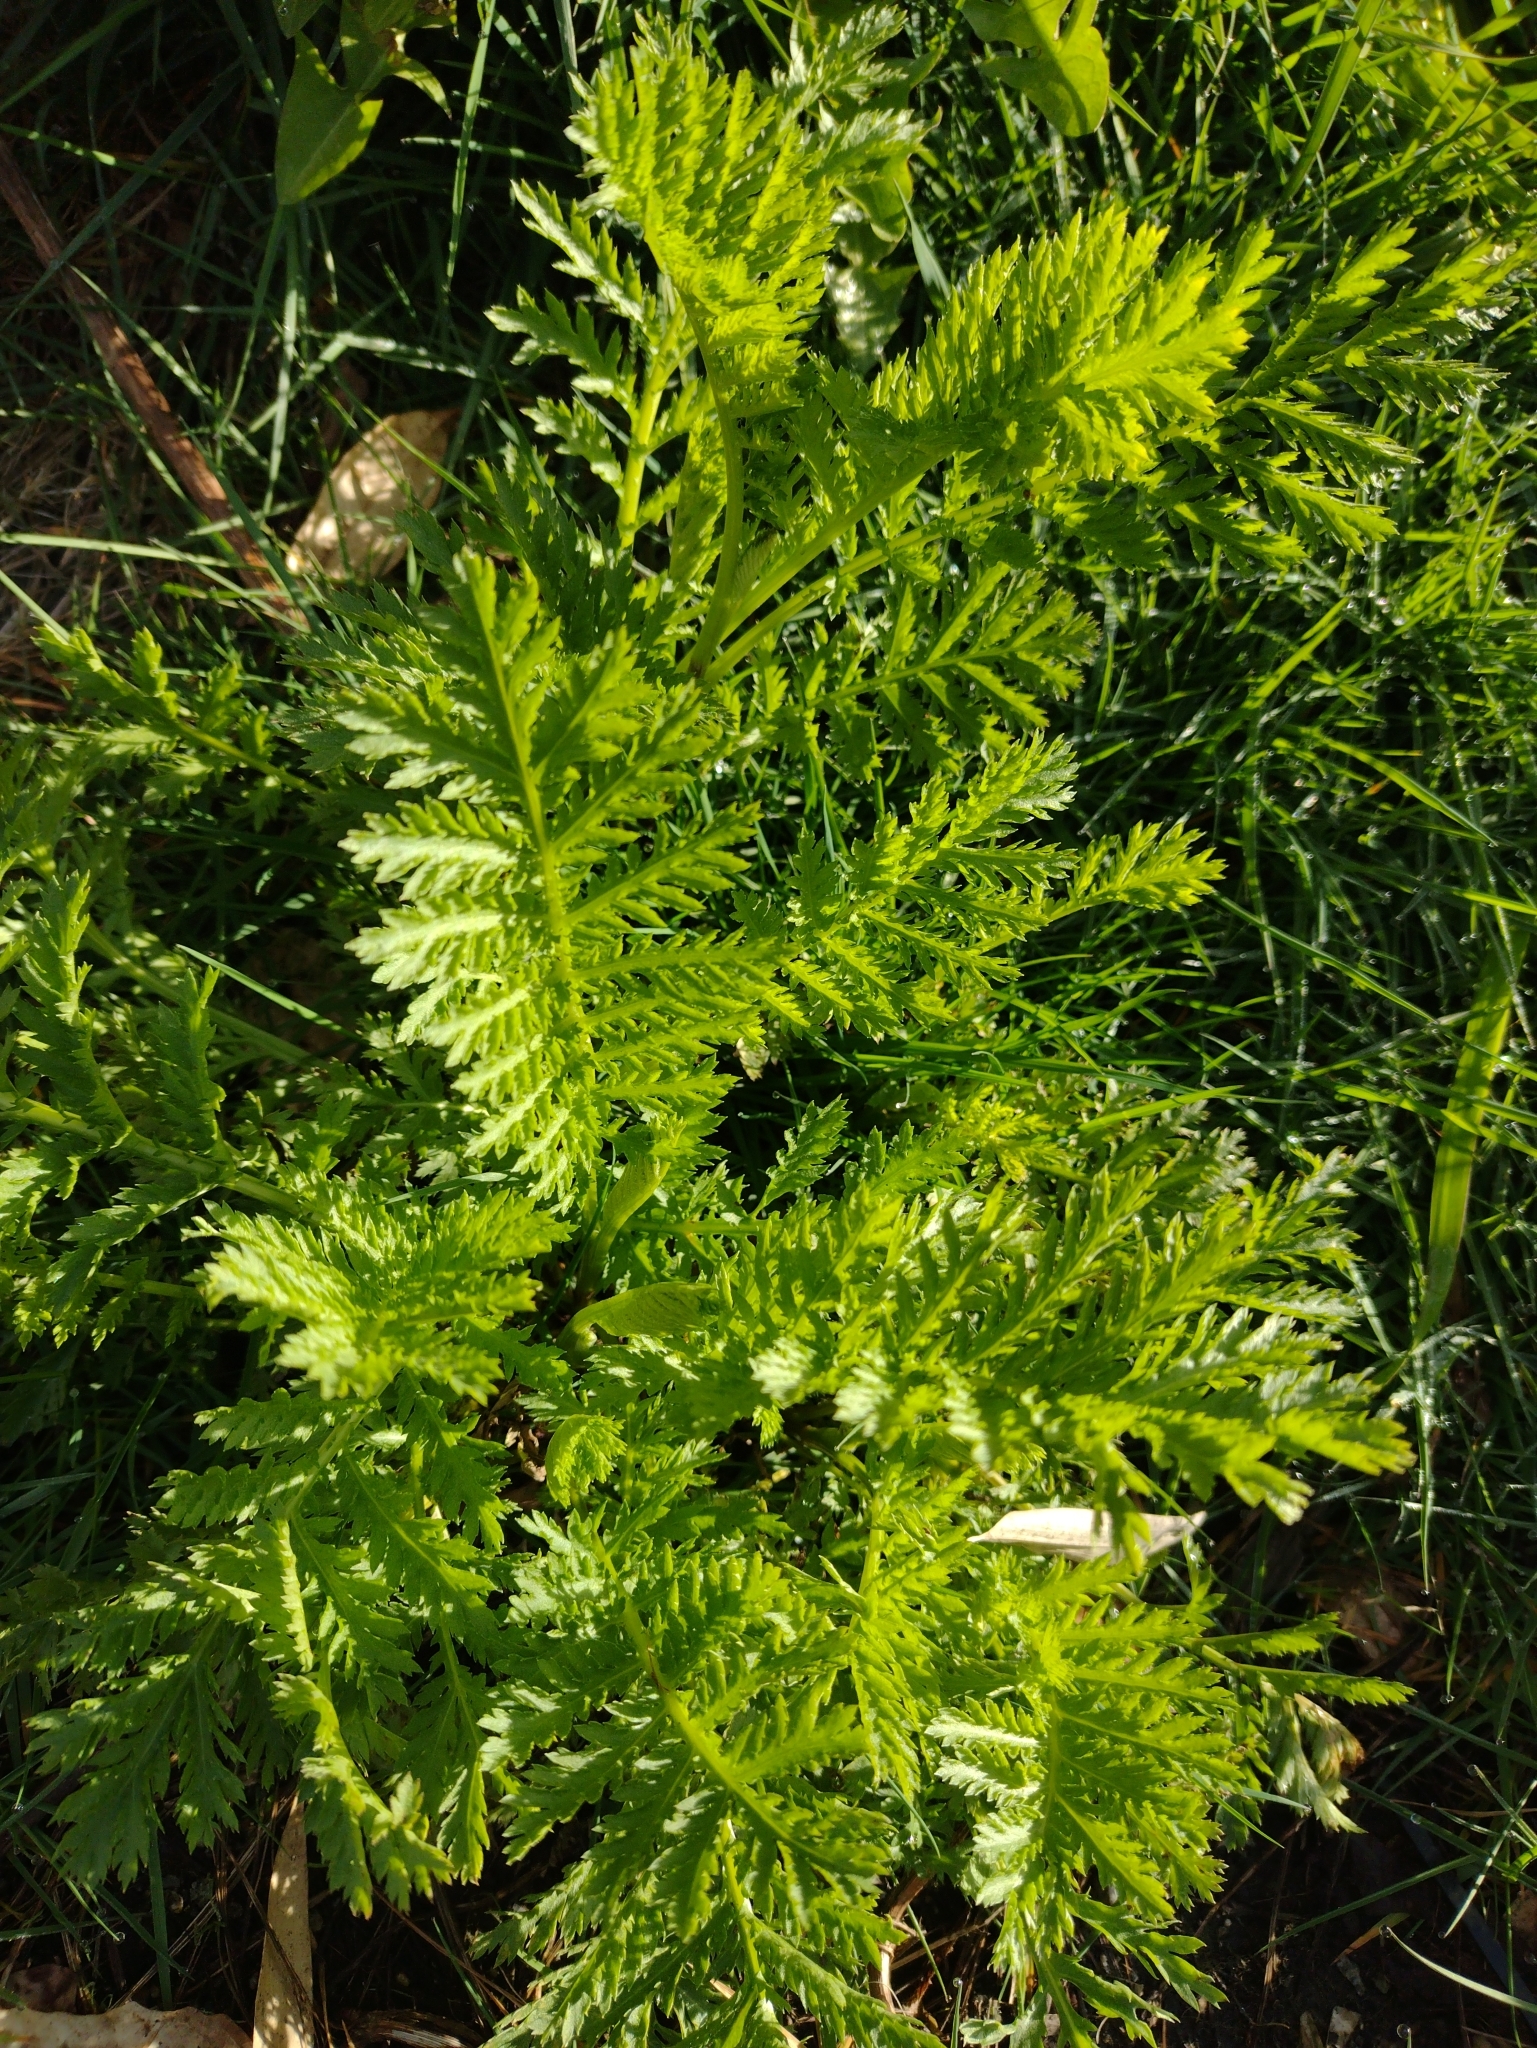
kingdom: Plantae
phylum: Tracheophyta
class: Magnoliopsida
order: Asterales
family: Asteraceae
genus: Tanacetum
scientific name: Tanacetum vulgare
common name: Common tansy
